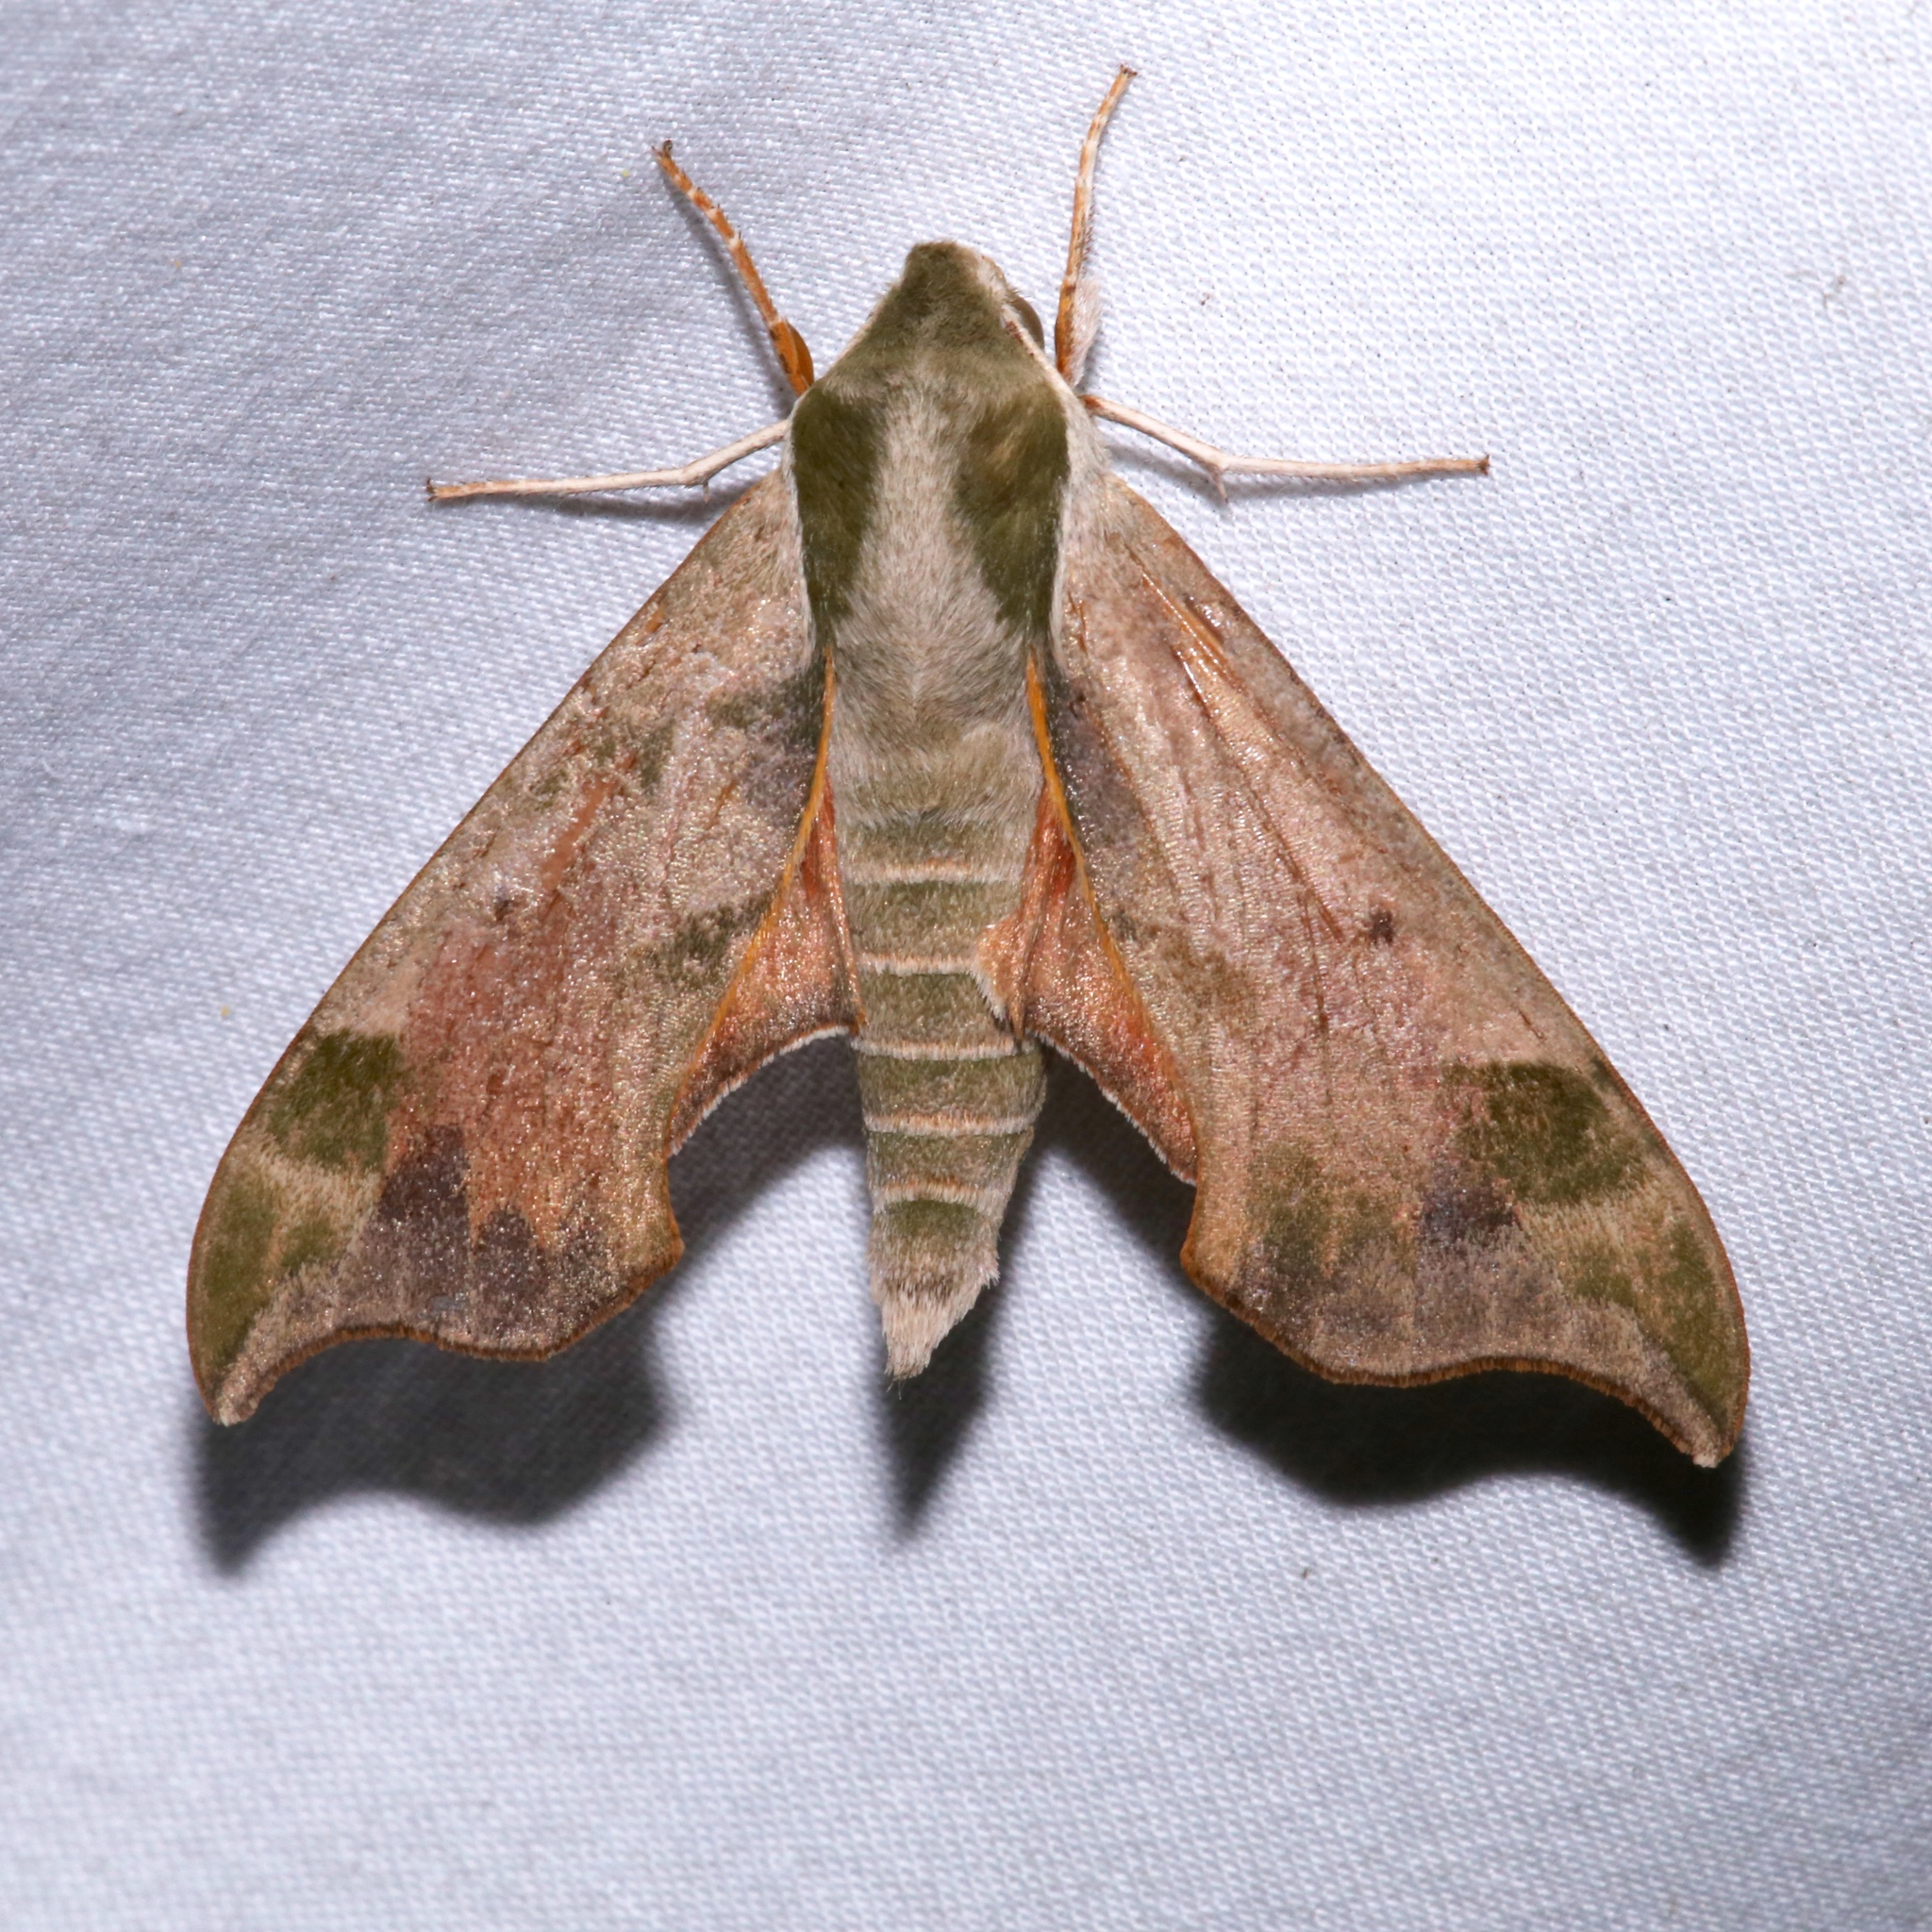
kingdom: Animalia
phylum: Arthropoda
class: Insecta
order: Lepidoptera
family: Sphingidae
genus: Darapsa
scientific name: Darapsa myron
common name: Hog sphinx
